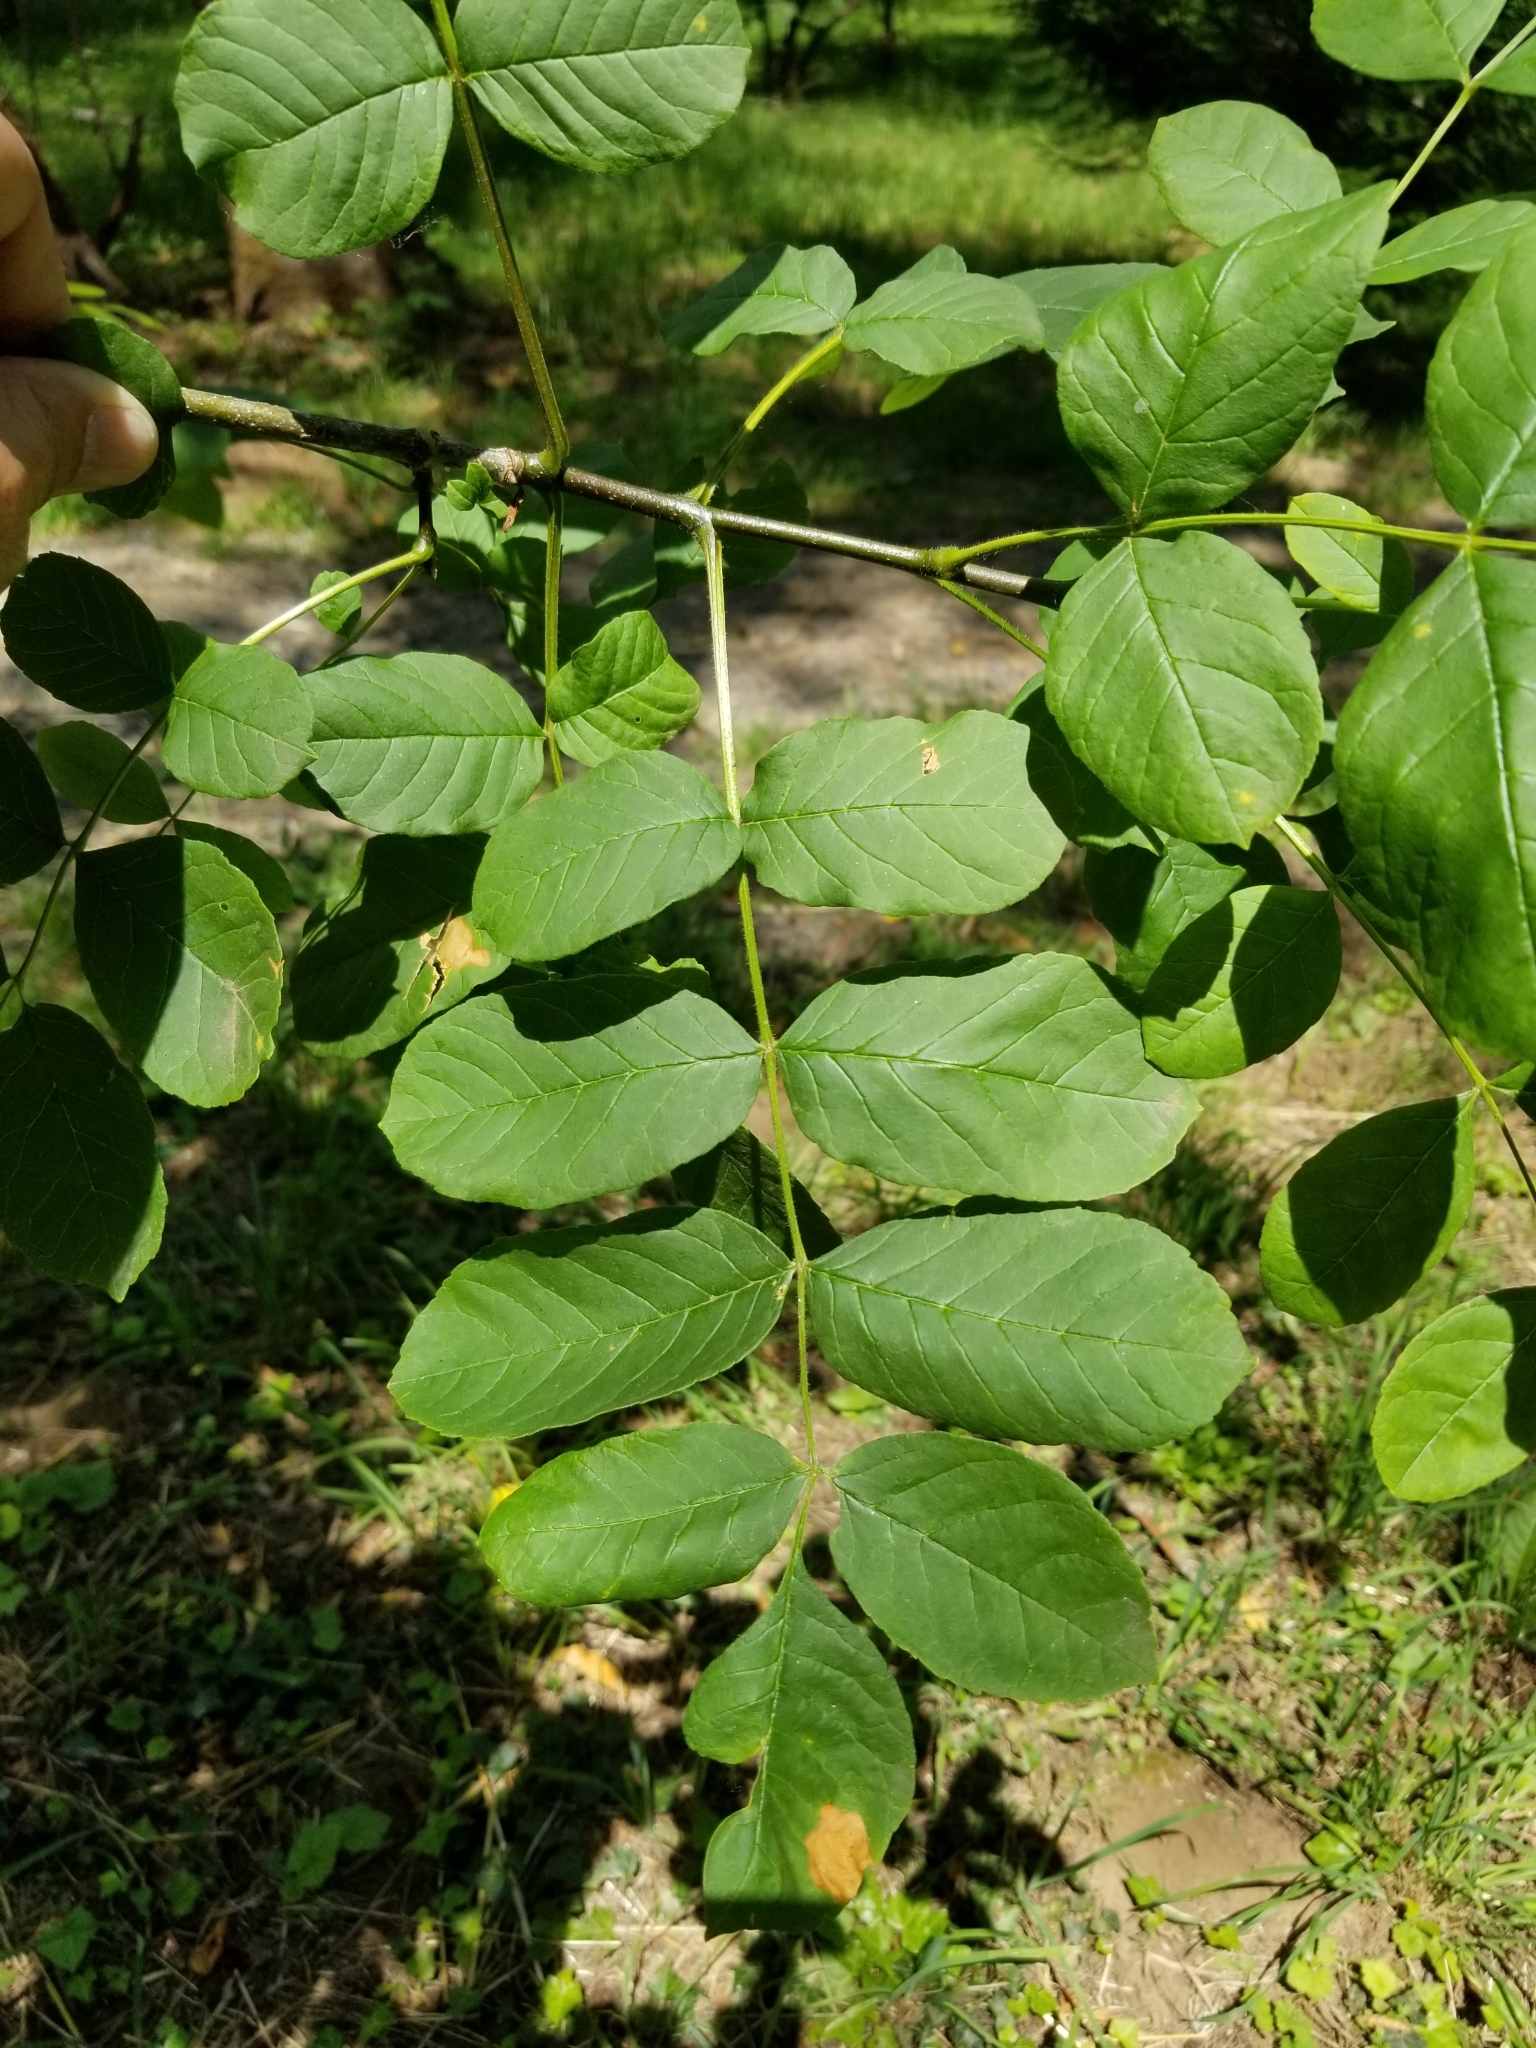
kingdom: Plantae
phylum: Tracheophyta
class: Magnoliopsida
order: Lamiales
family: Oleaceae
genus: Fraxinus
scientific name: Fraxinus latifolia
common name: Oregon ash
